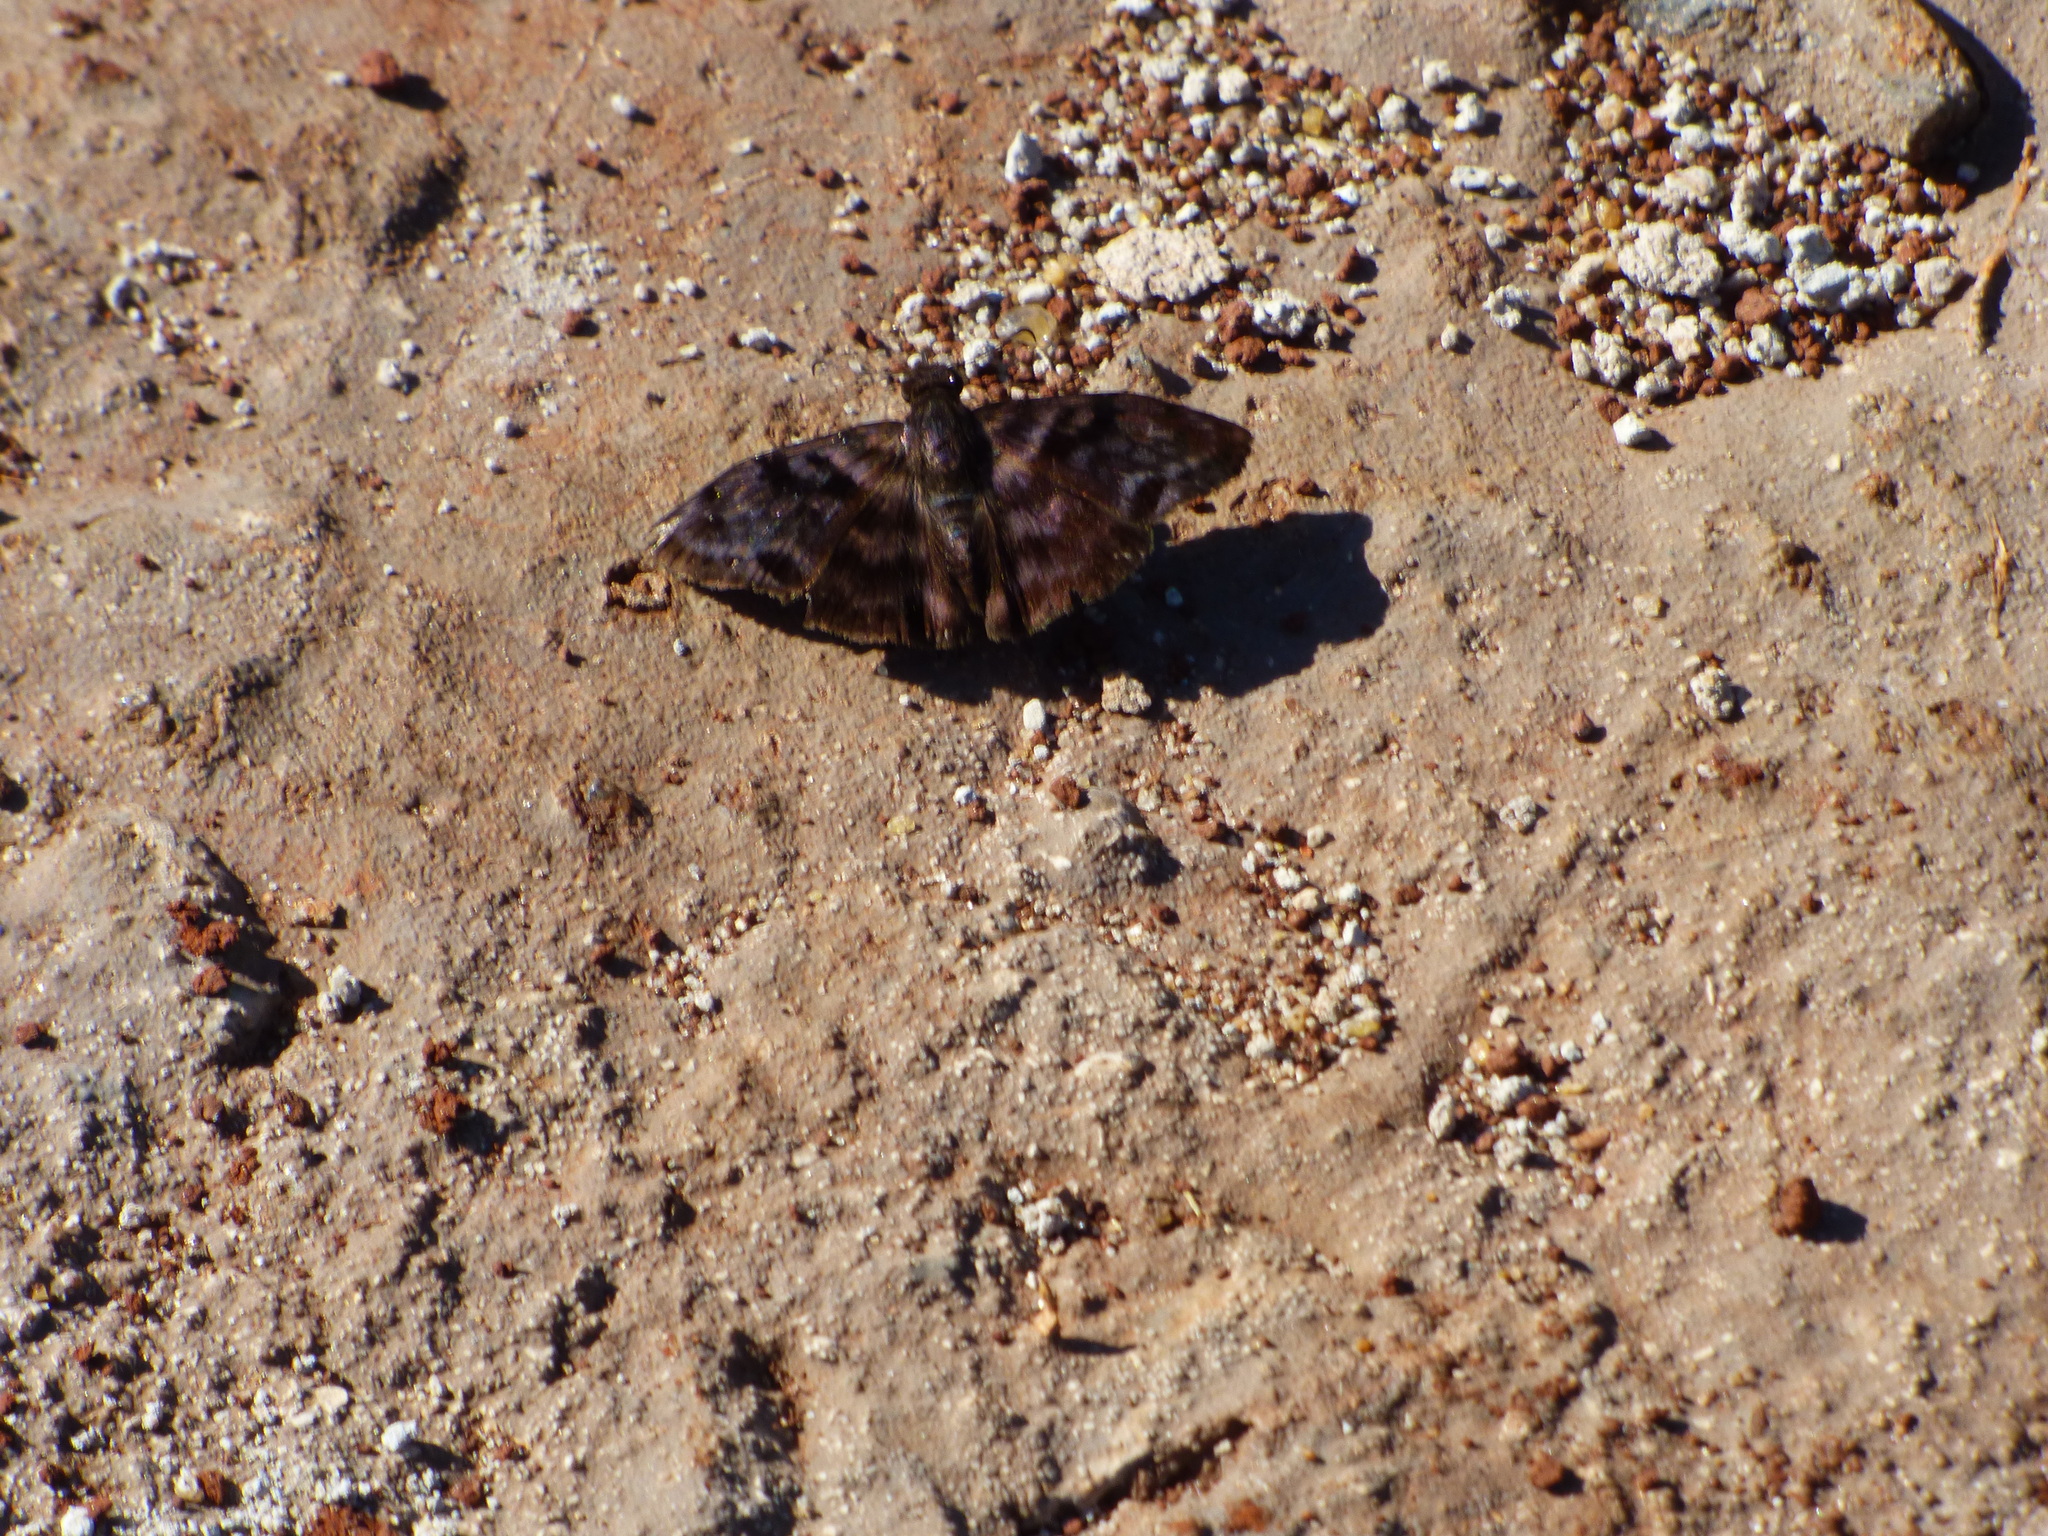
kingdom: Animalia
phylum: Arthropoda
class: Insecta
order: Lepidoptera
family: Hesperiidae
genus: Ebrietas
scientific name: Ebrietas anacreon
